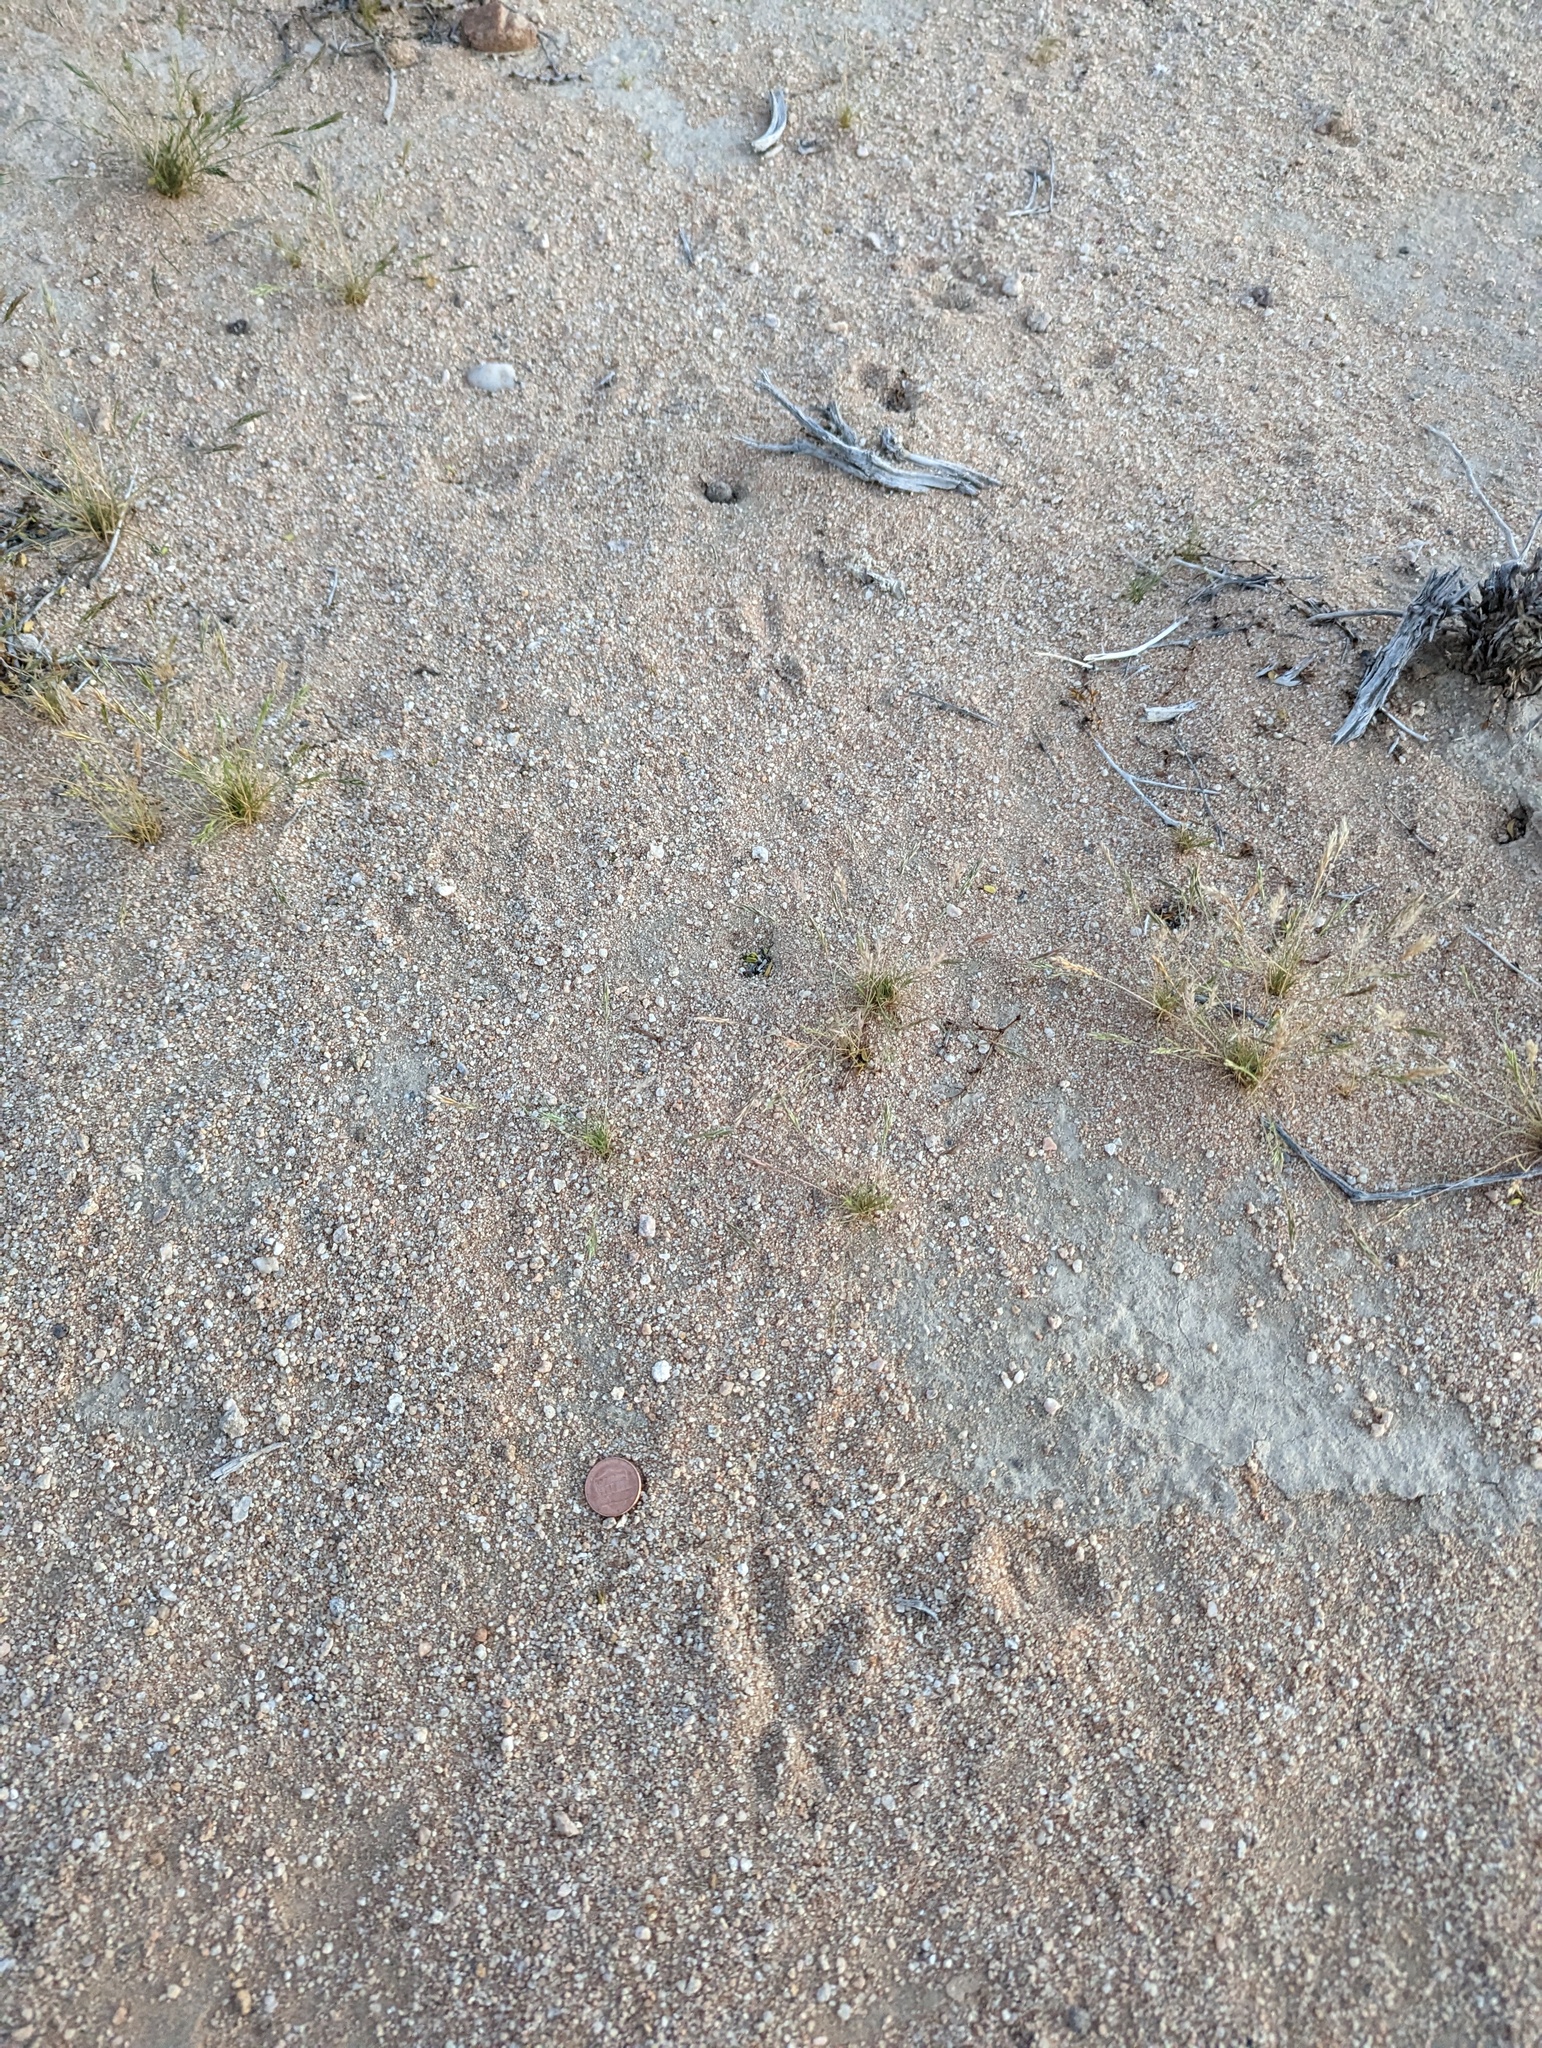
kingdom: Animalia
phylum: Chordata
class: Aves
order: Cuculiformes
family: Cuculidae
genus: Geococcyx
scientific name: Geococcyx californianus
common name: Greater roadrunner
